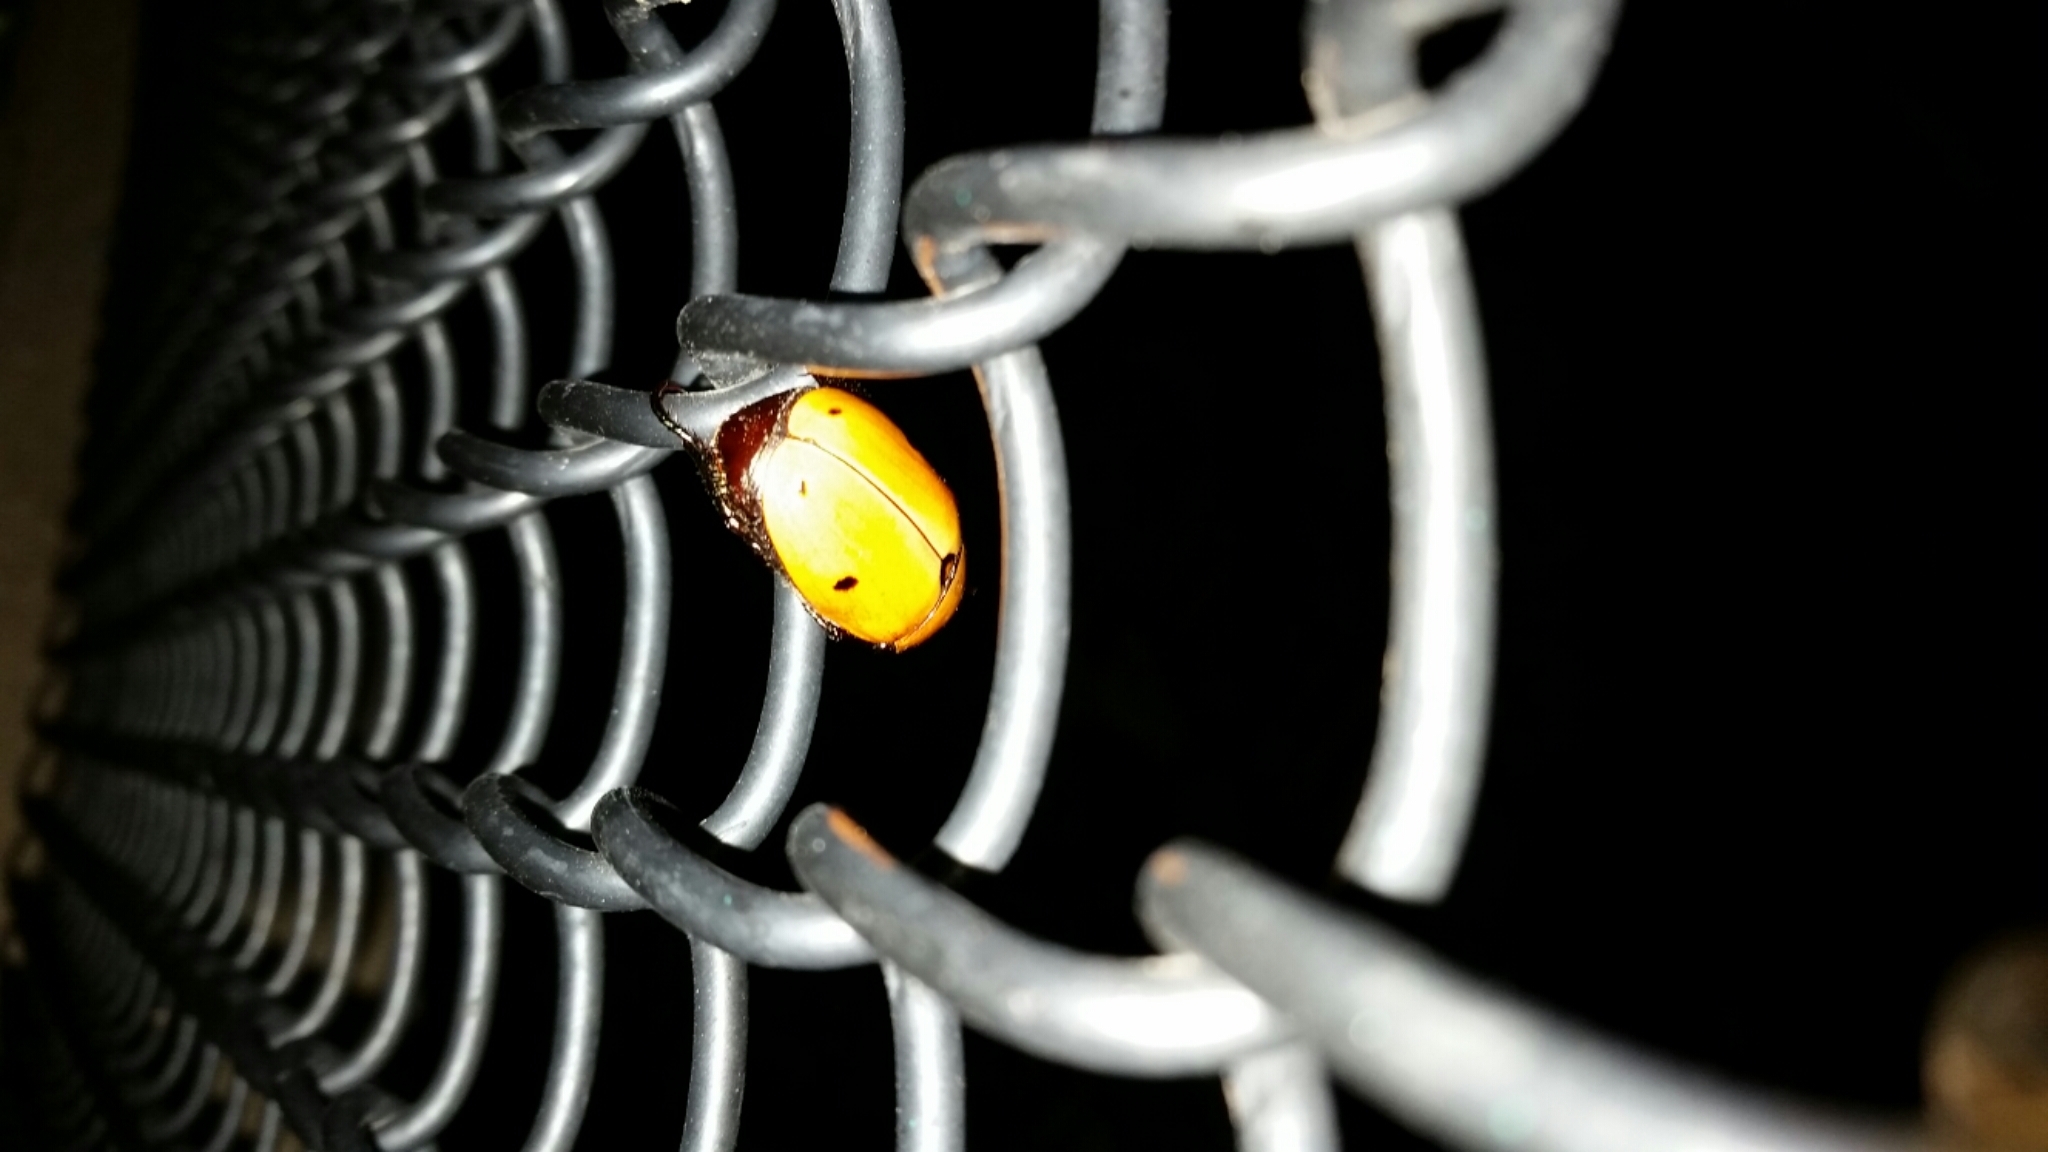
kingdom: Animalia
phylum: Arthropoda
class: Insecta
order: Coleoptera
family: Scarabaeidae
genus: Pelidnota
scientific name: Pelidnota punctata
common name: Grapevine beetle
